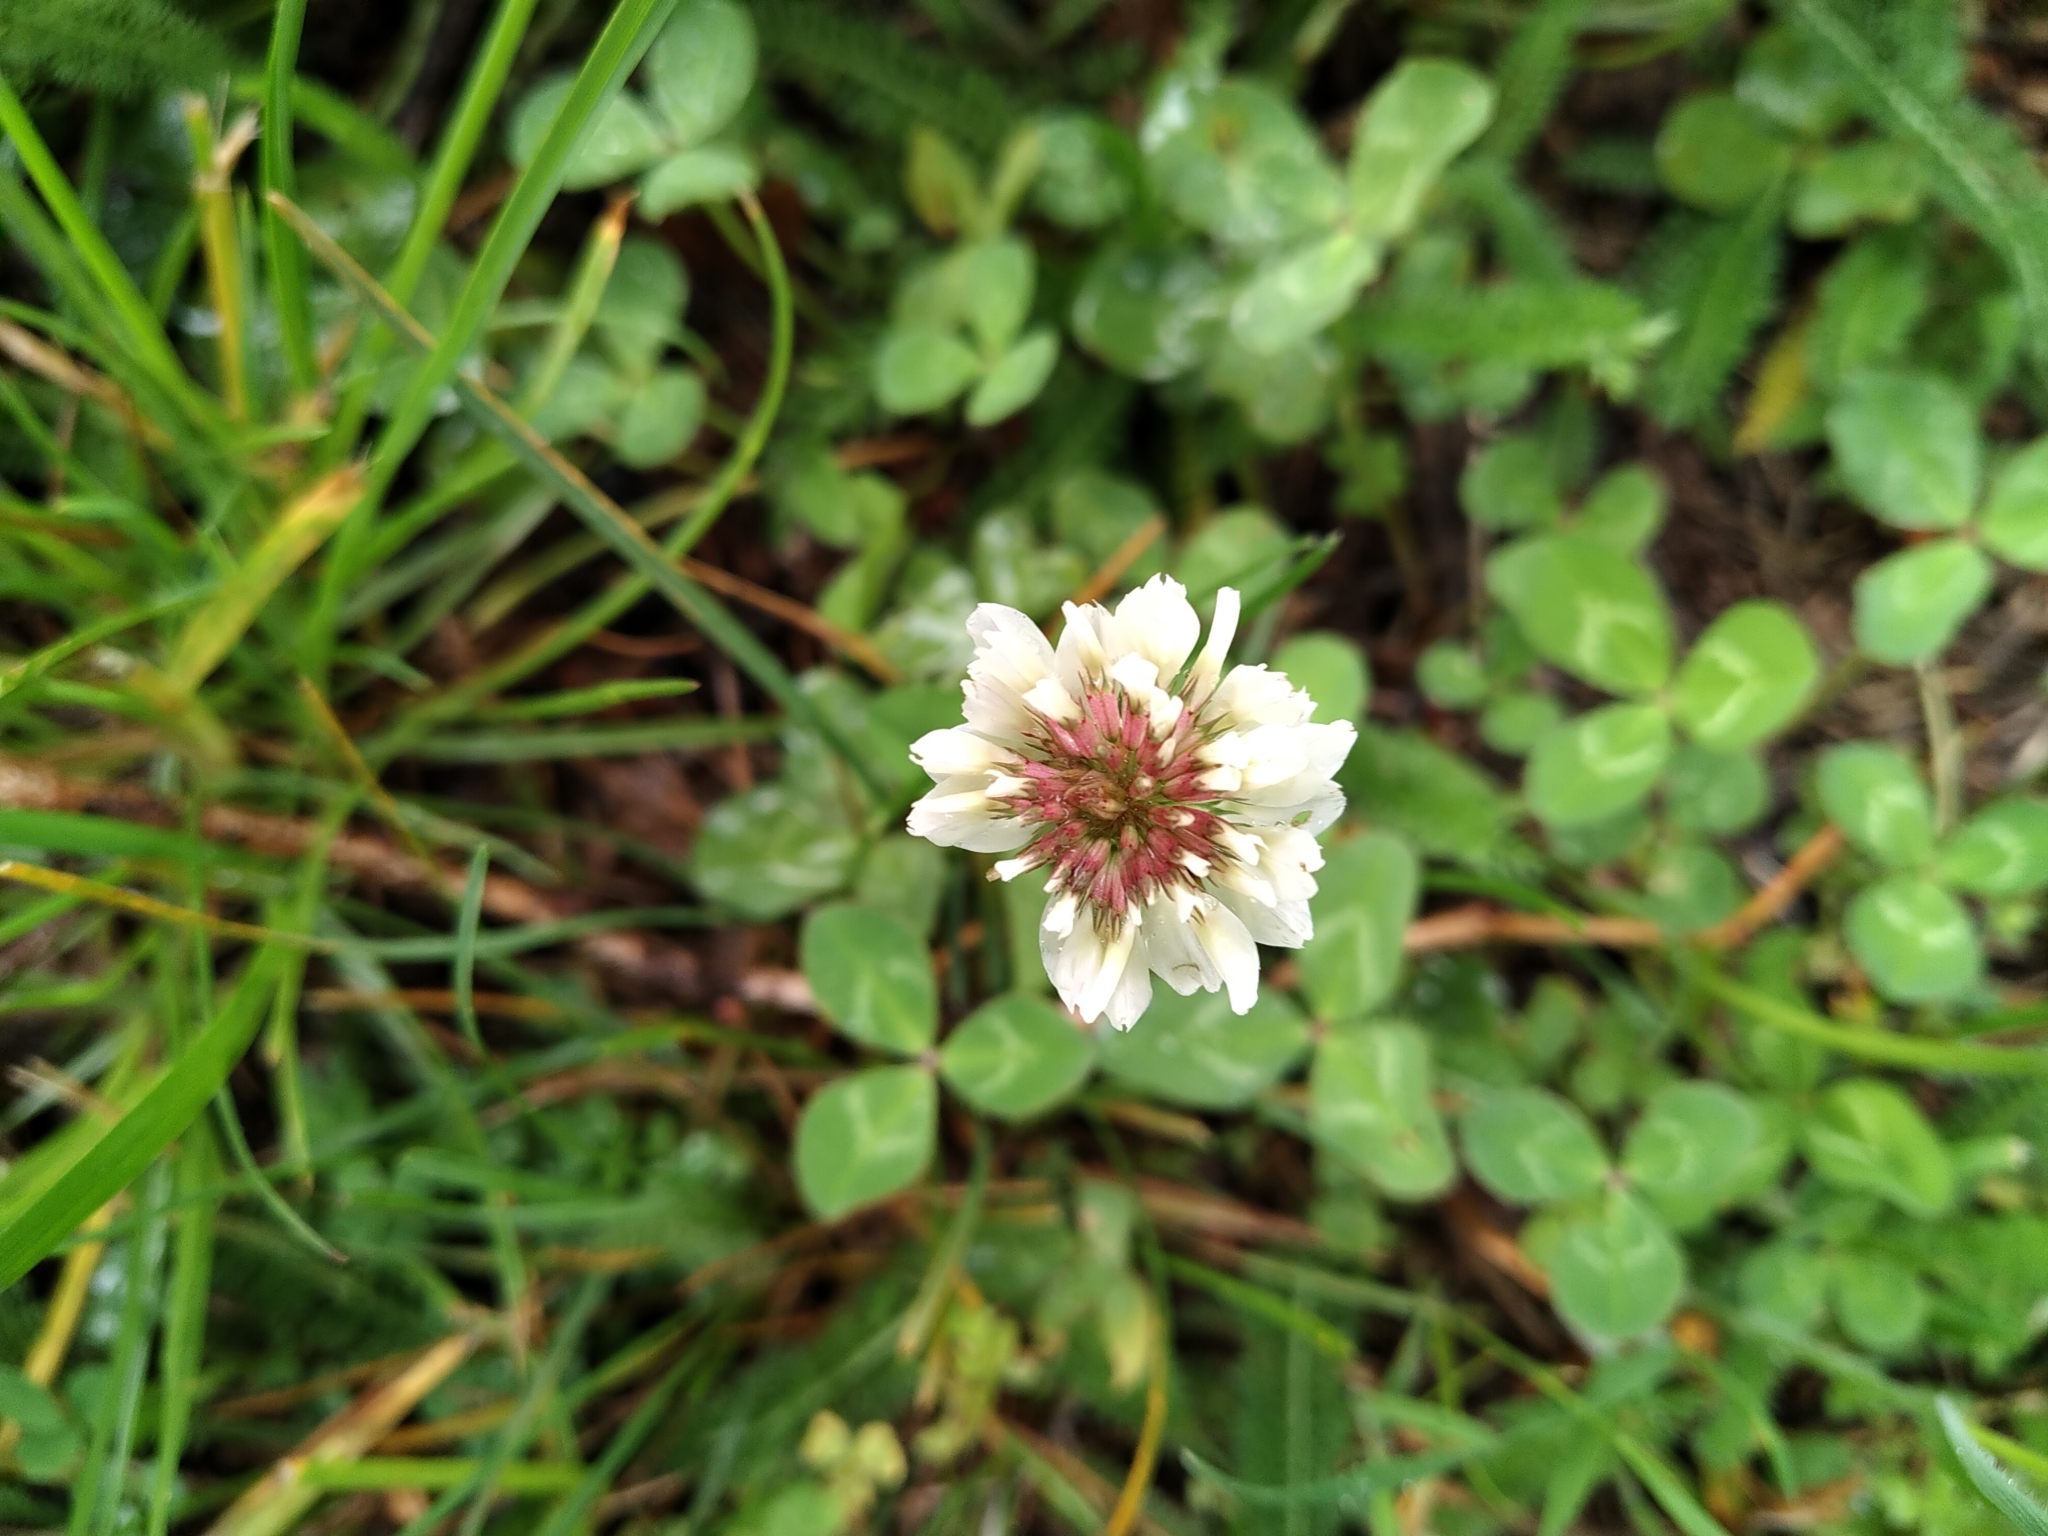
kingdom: Plantae
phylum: Tracheophyta
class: Magnoliopsida
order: Fabales
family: Fabaceae
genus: Trifolium
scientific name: Trifolium repens
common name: White clover
